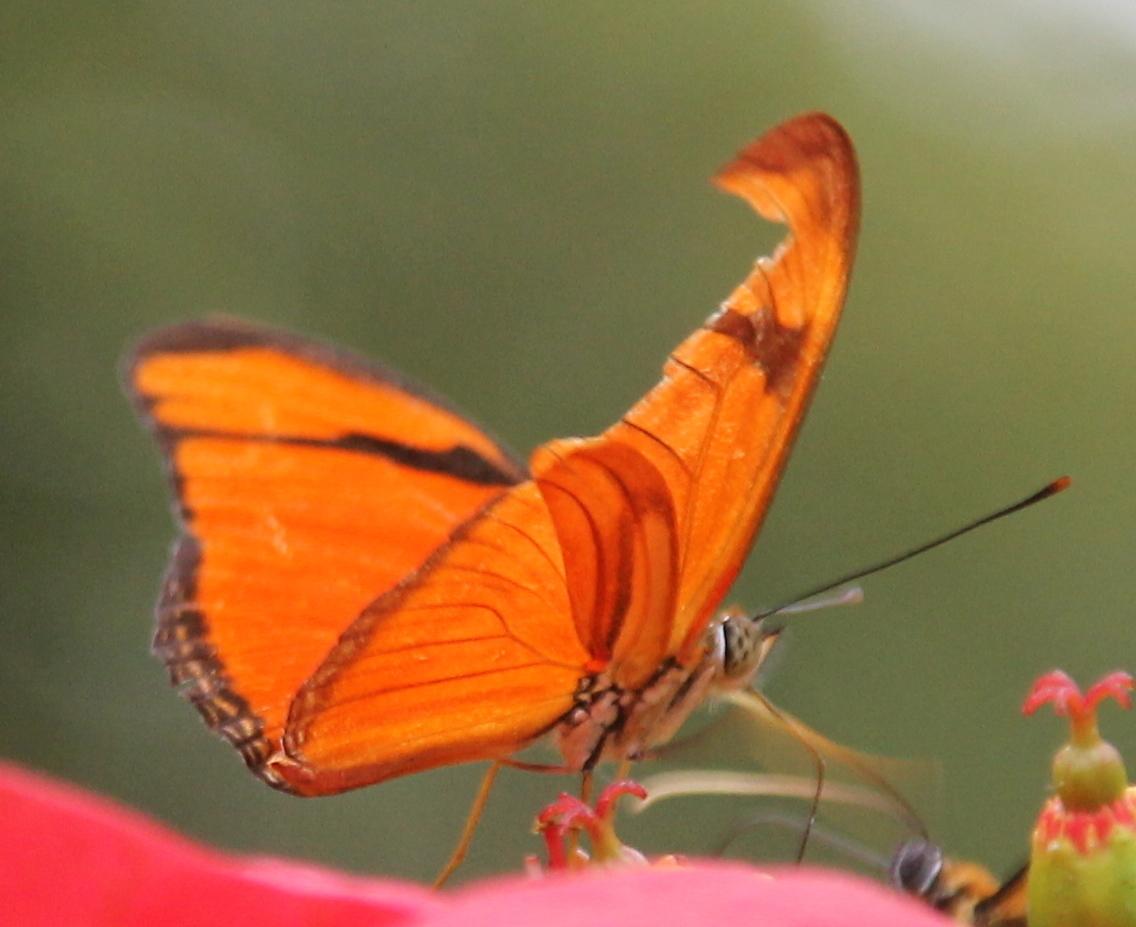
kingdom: Animalia
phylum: Arthropoda
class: Insecta
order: Lepidoptera
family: Nymphalidae
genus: Dryas
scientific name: Dryas iulia
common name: Flambeau
